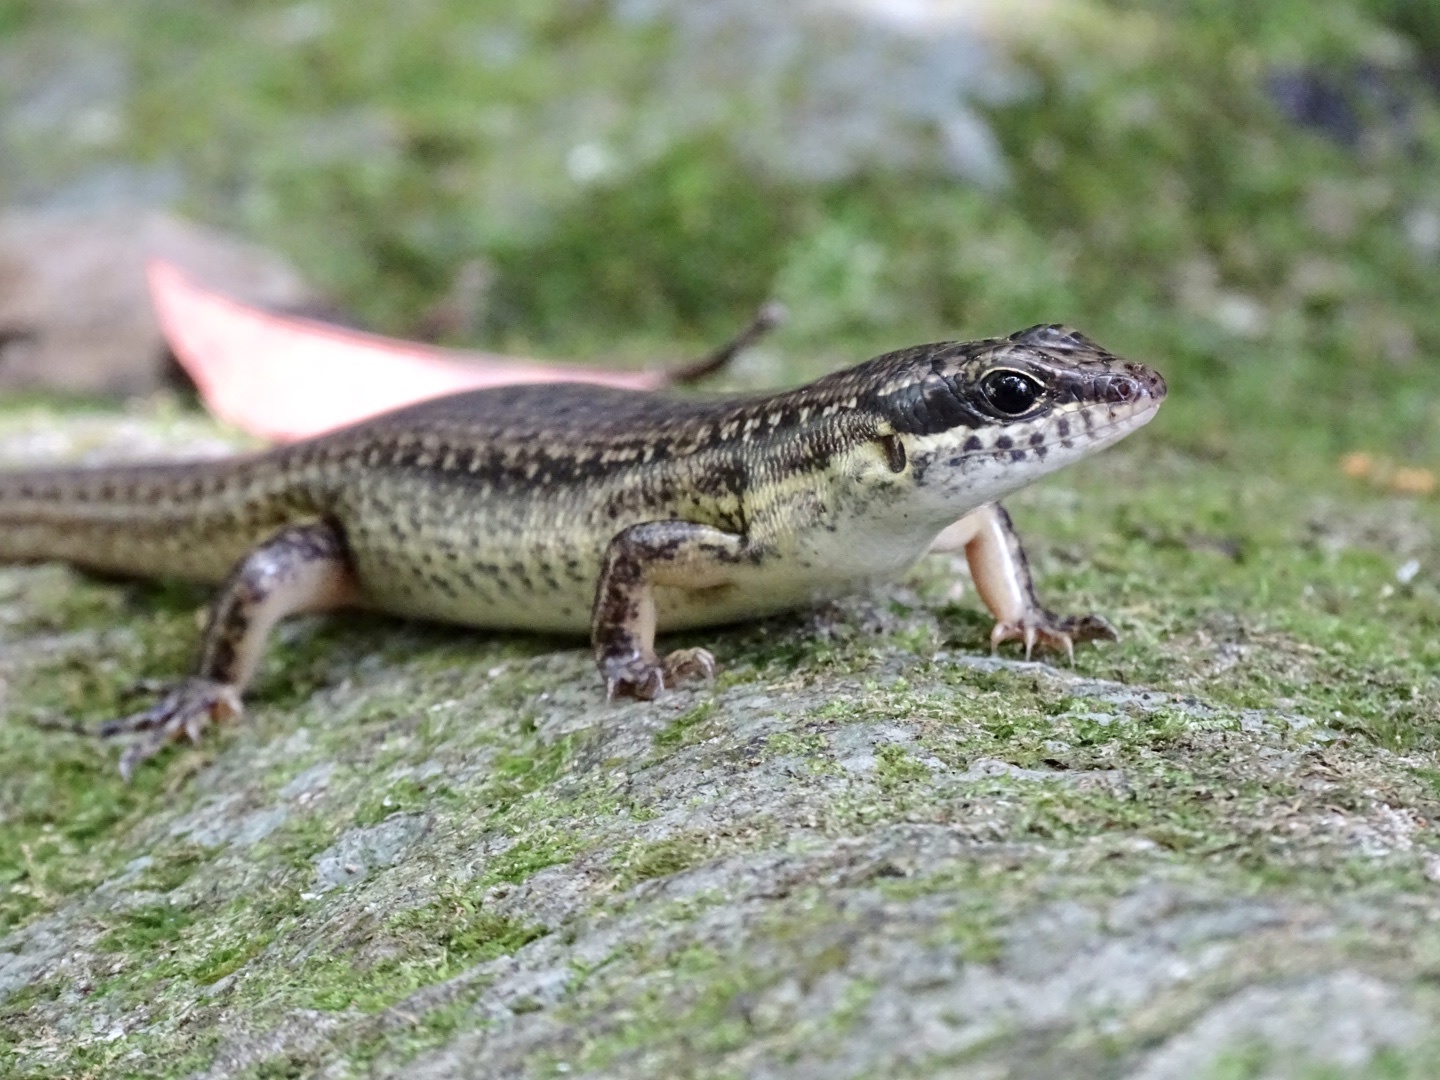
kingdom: Animalia
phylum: Chordata
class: Squamata
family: Scincidae
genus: Sphenomorphus
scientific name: Sphenomorphus incognitus
